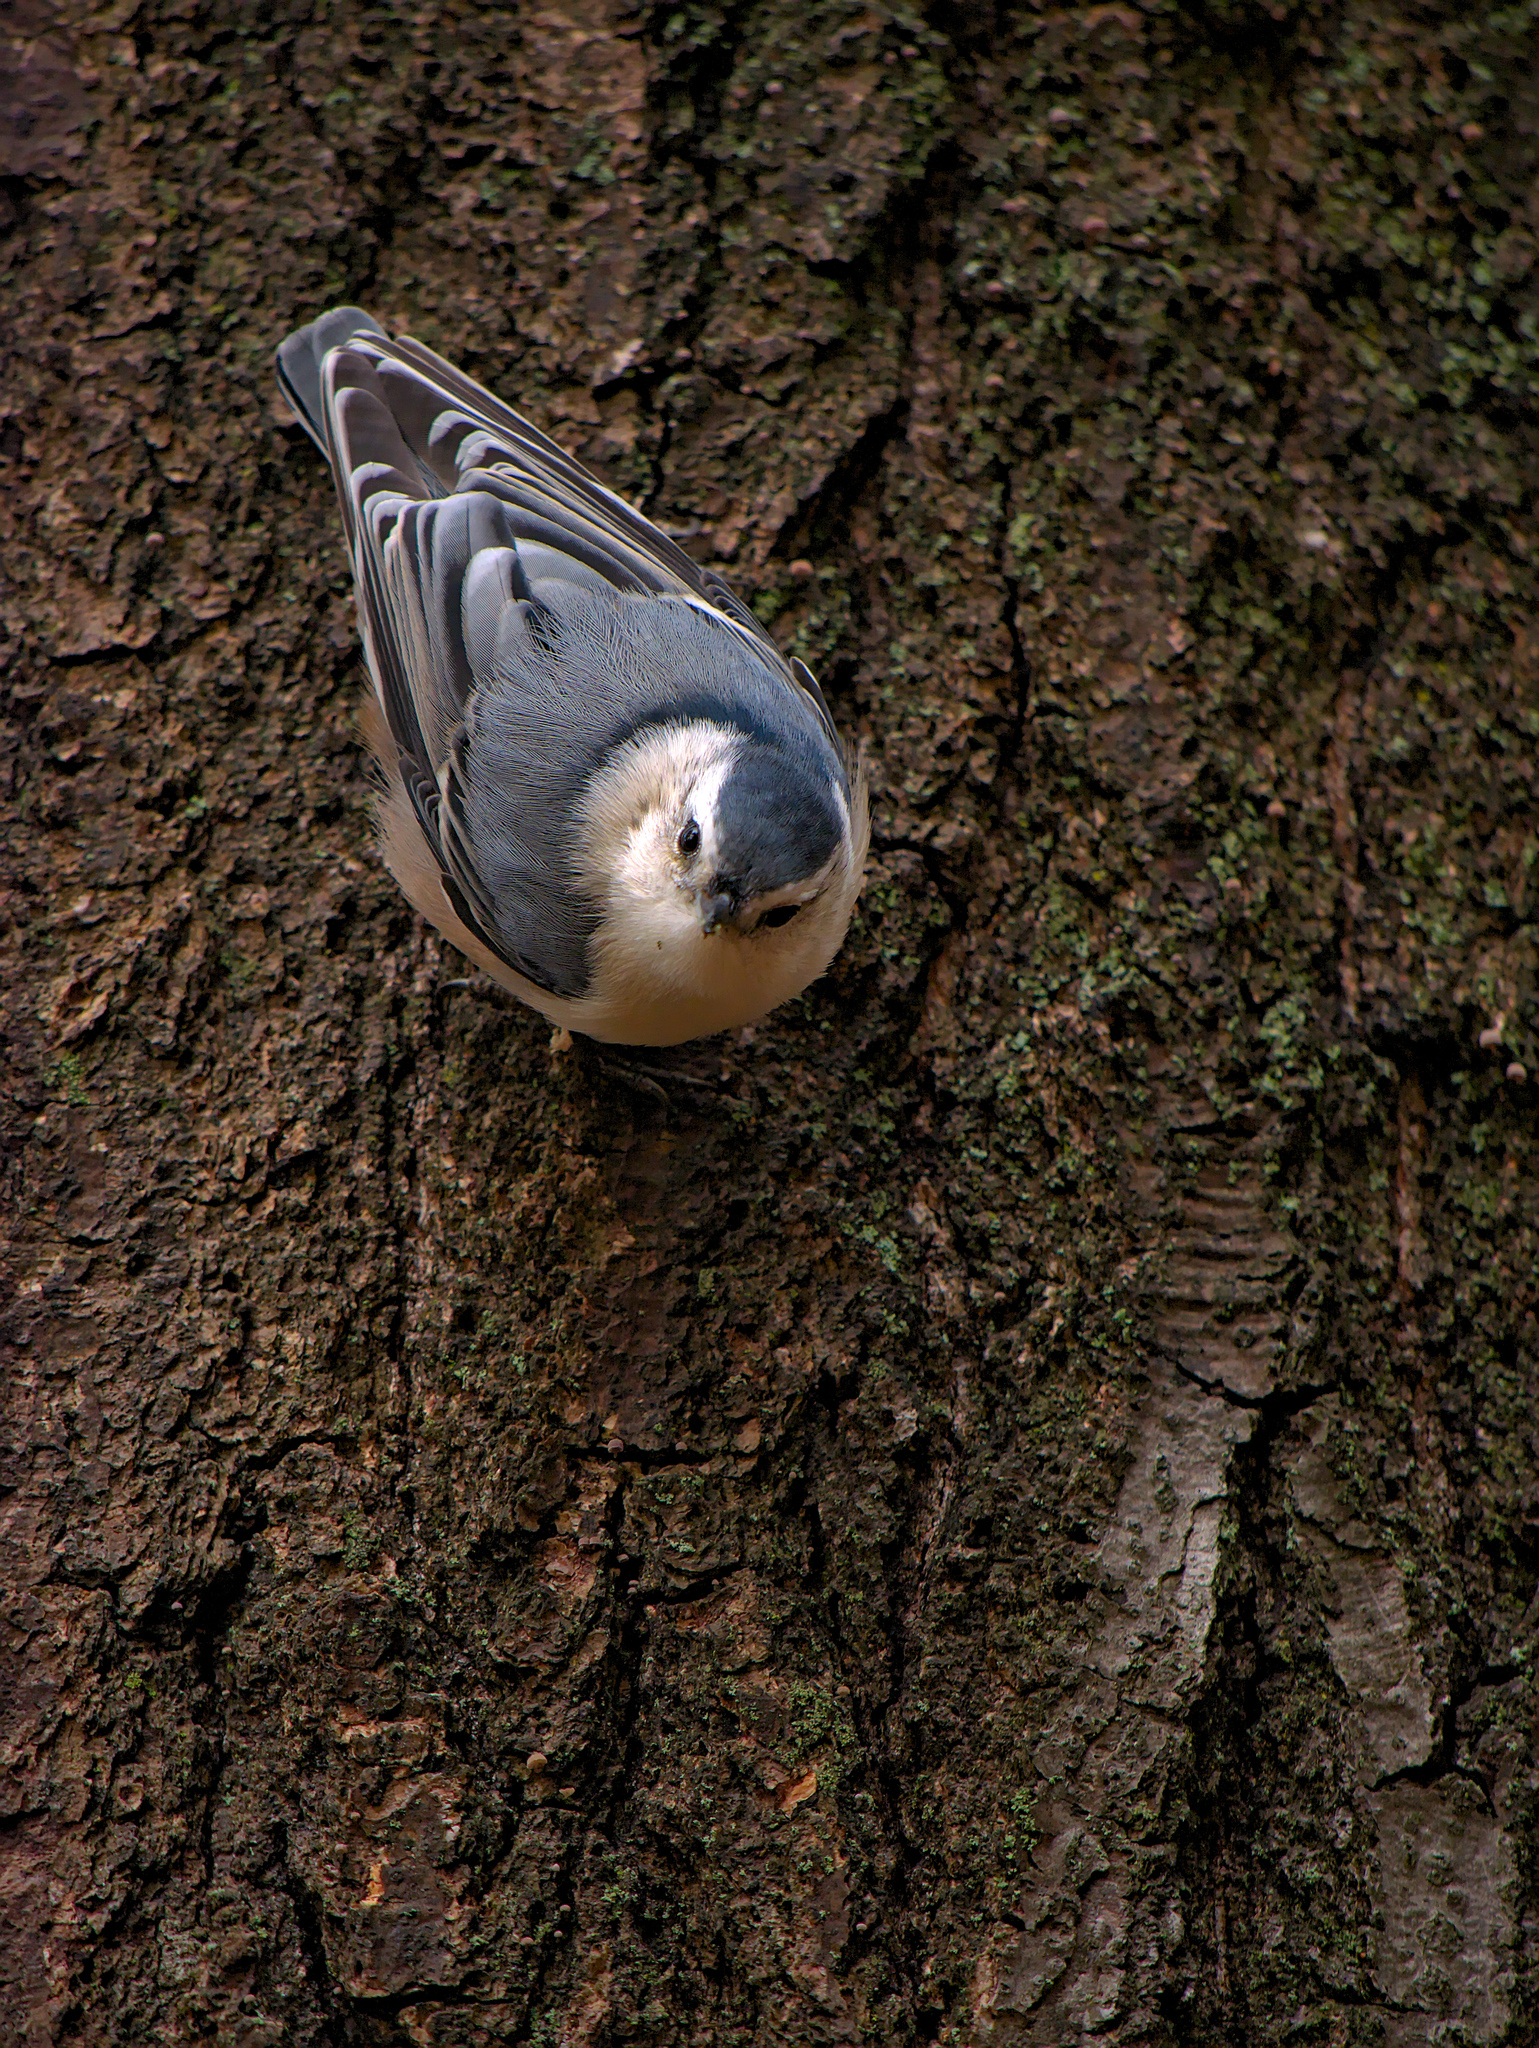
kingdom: Animalia
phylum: Chordata
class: Aves
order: Passeriformes
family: Sittidae
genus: Sitta
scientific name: Sitta carolinensis
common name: White-breasted nuthatch
